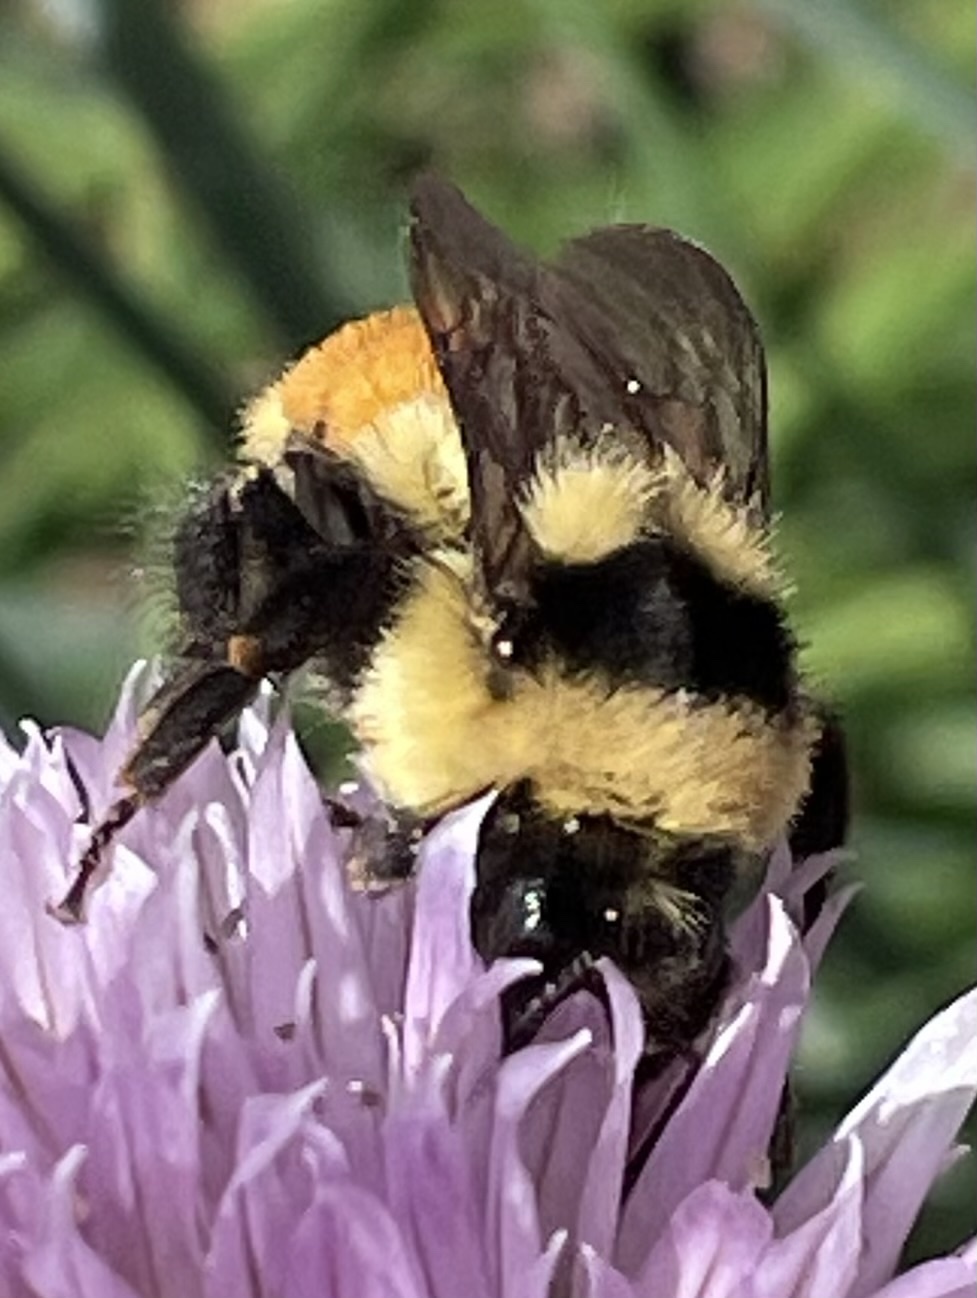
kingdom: Animalia
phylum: Arthropoda
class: Insecta
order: Hymenoptera
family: Apidae
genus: Bombus
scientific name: Bombus ternarius
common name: Tri-colored bumble bee
